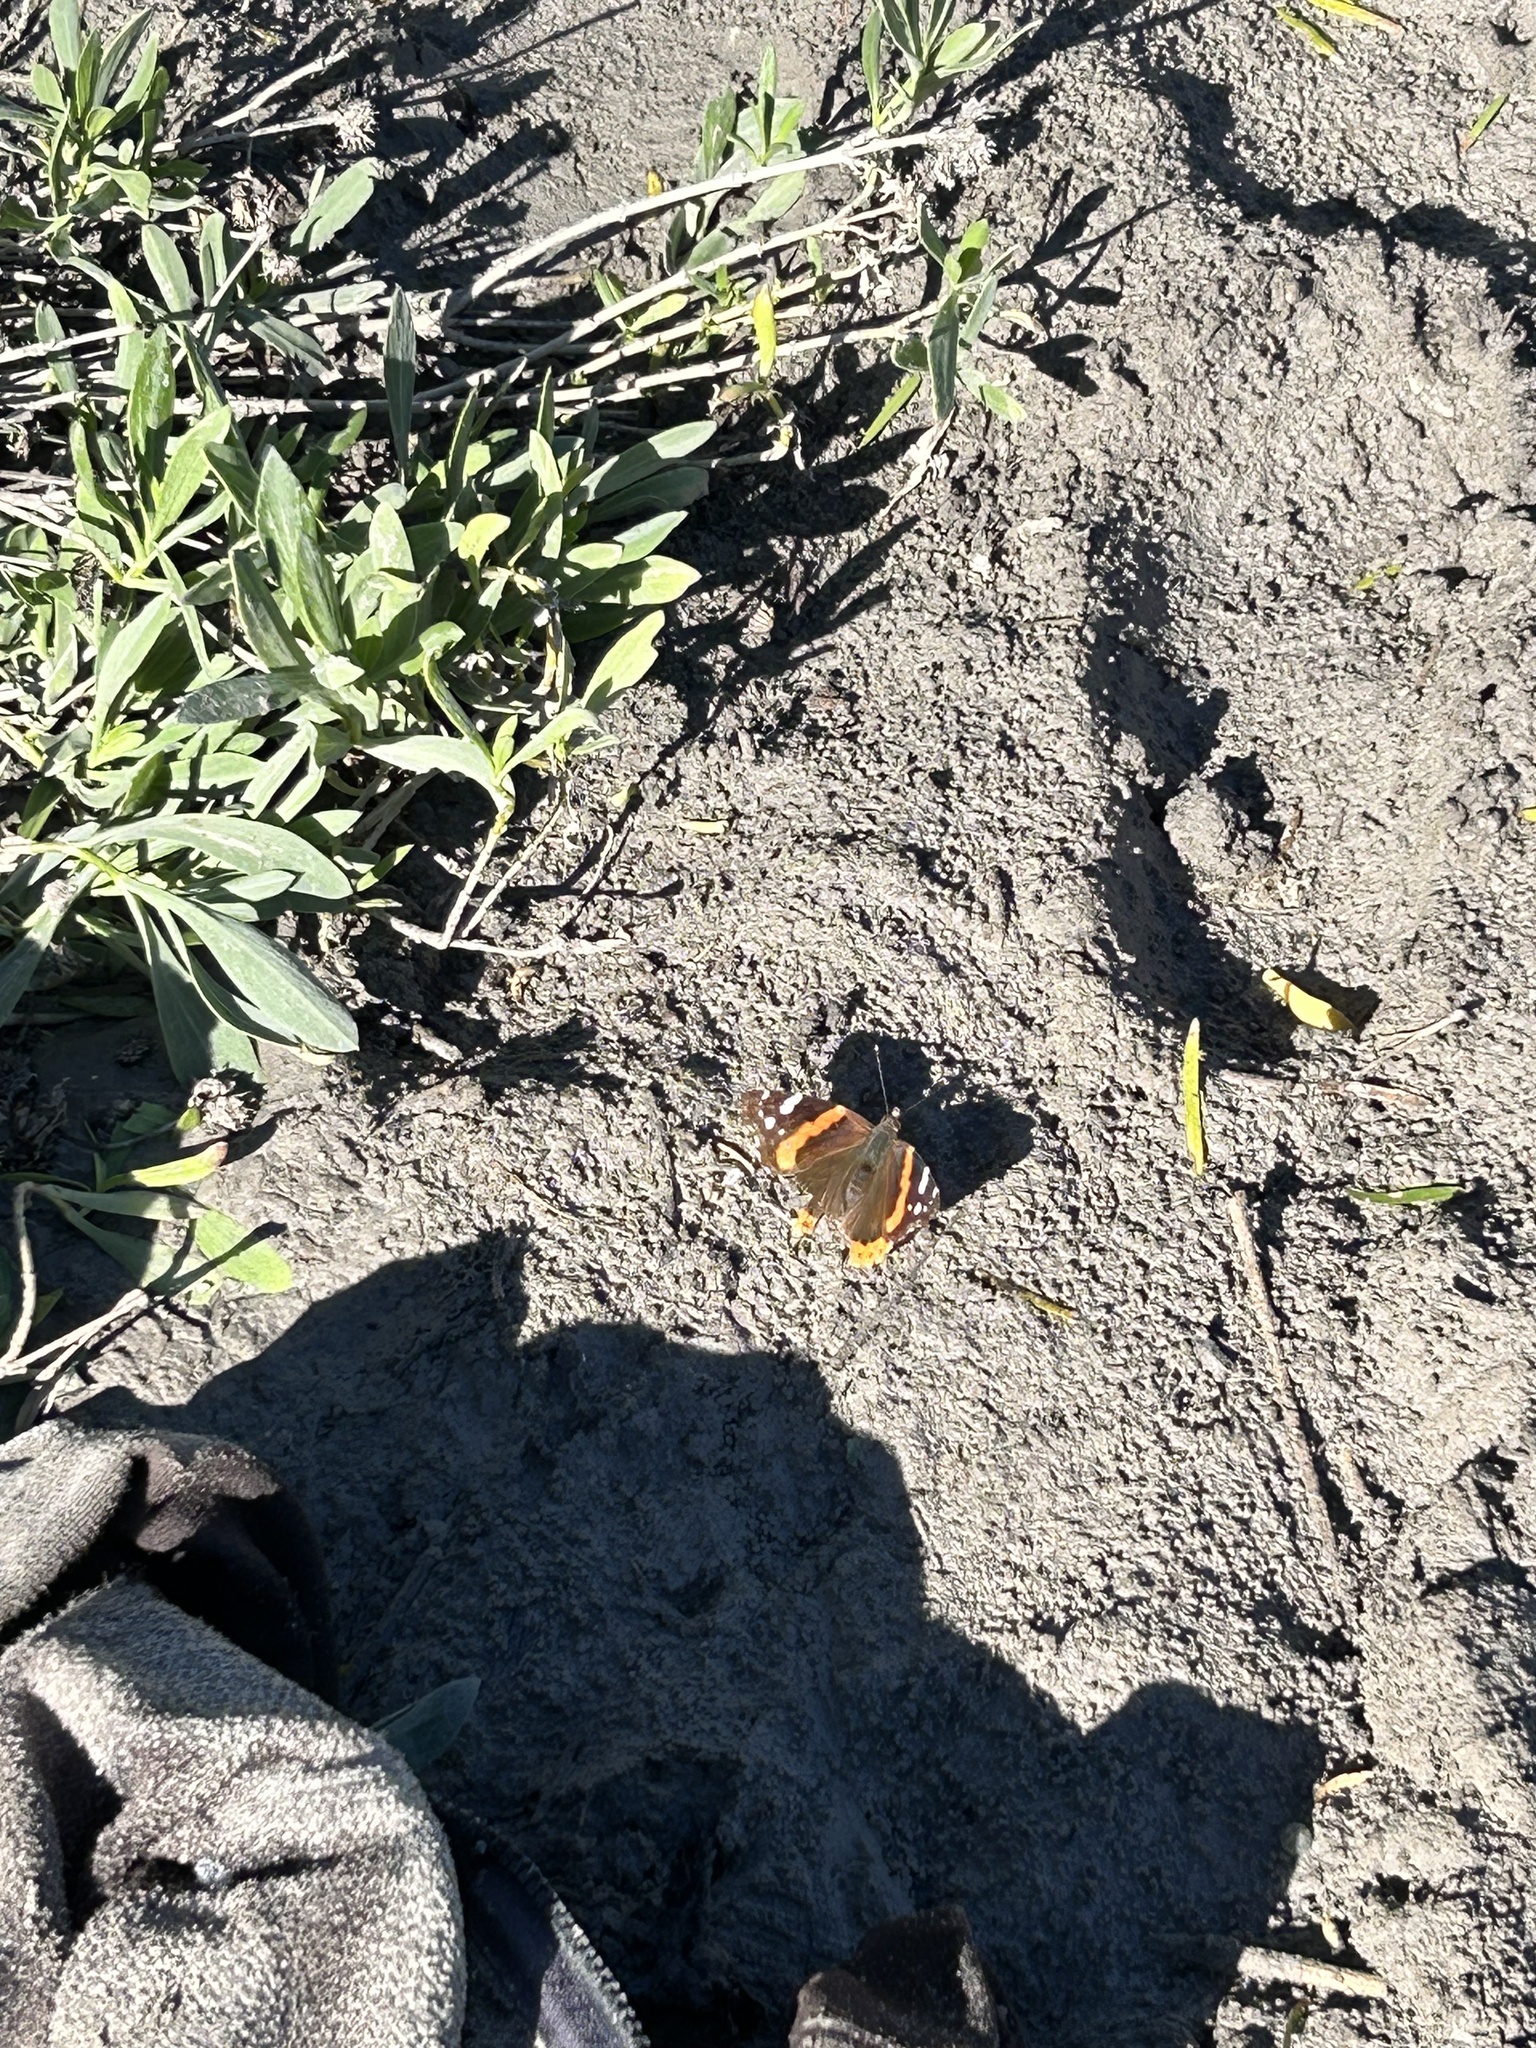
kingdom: Animalia
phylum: Arthropoda
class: Insecta
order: Lepidoptera
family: Nymphalidae
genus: Vanessa
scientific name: Vanessa atalanta
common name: Red admiral
